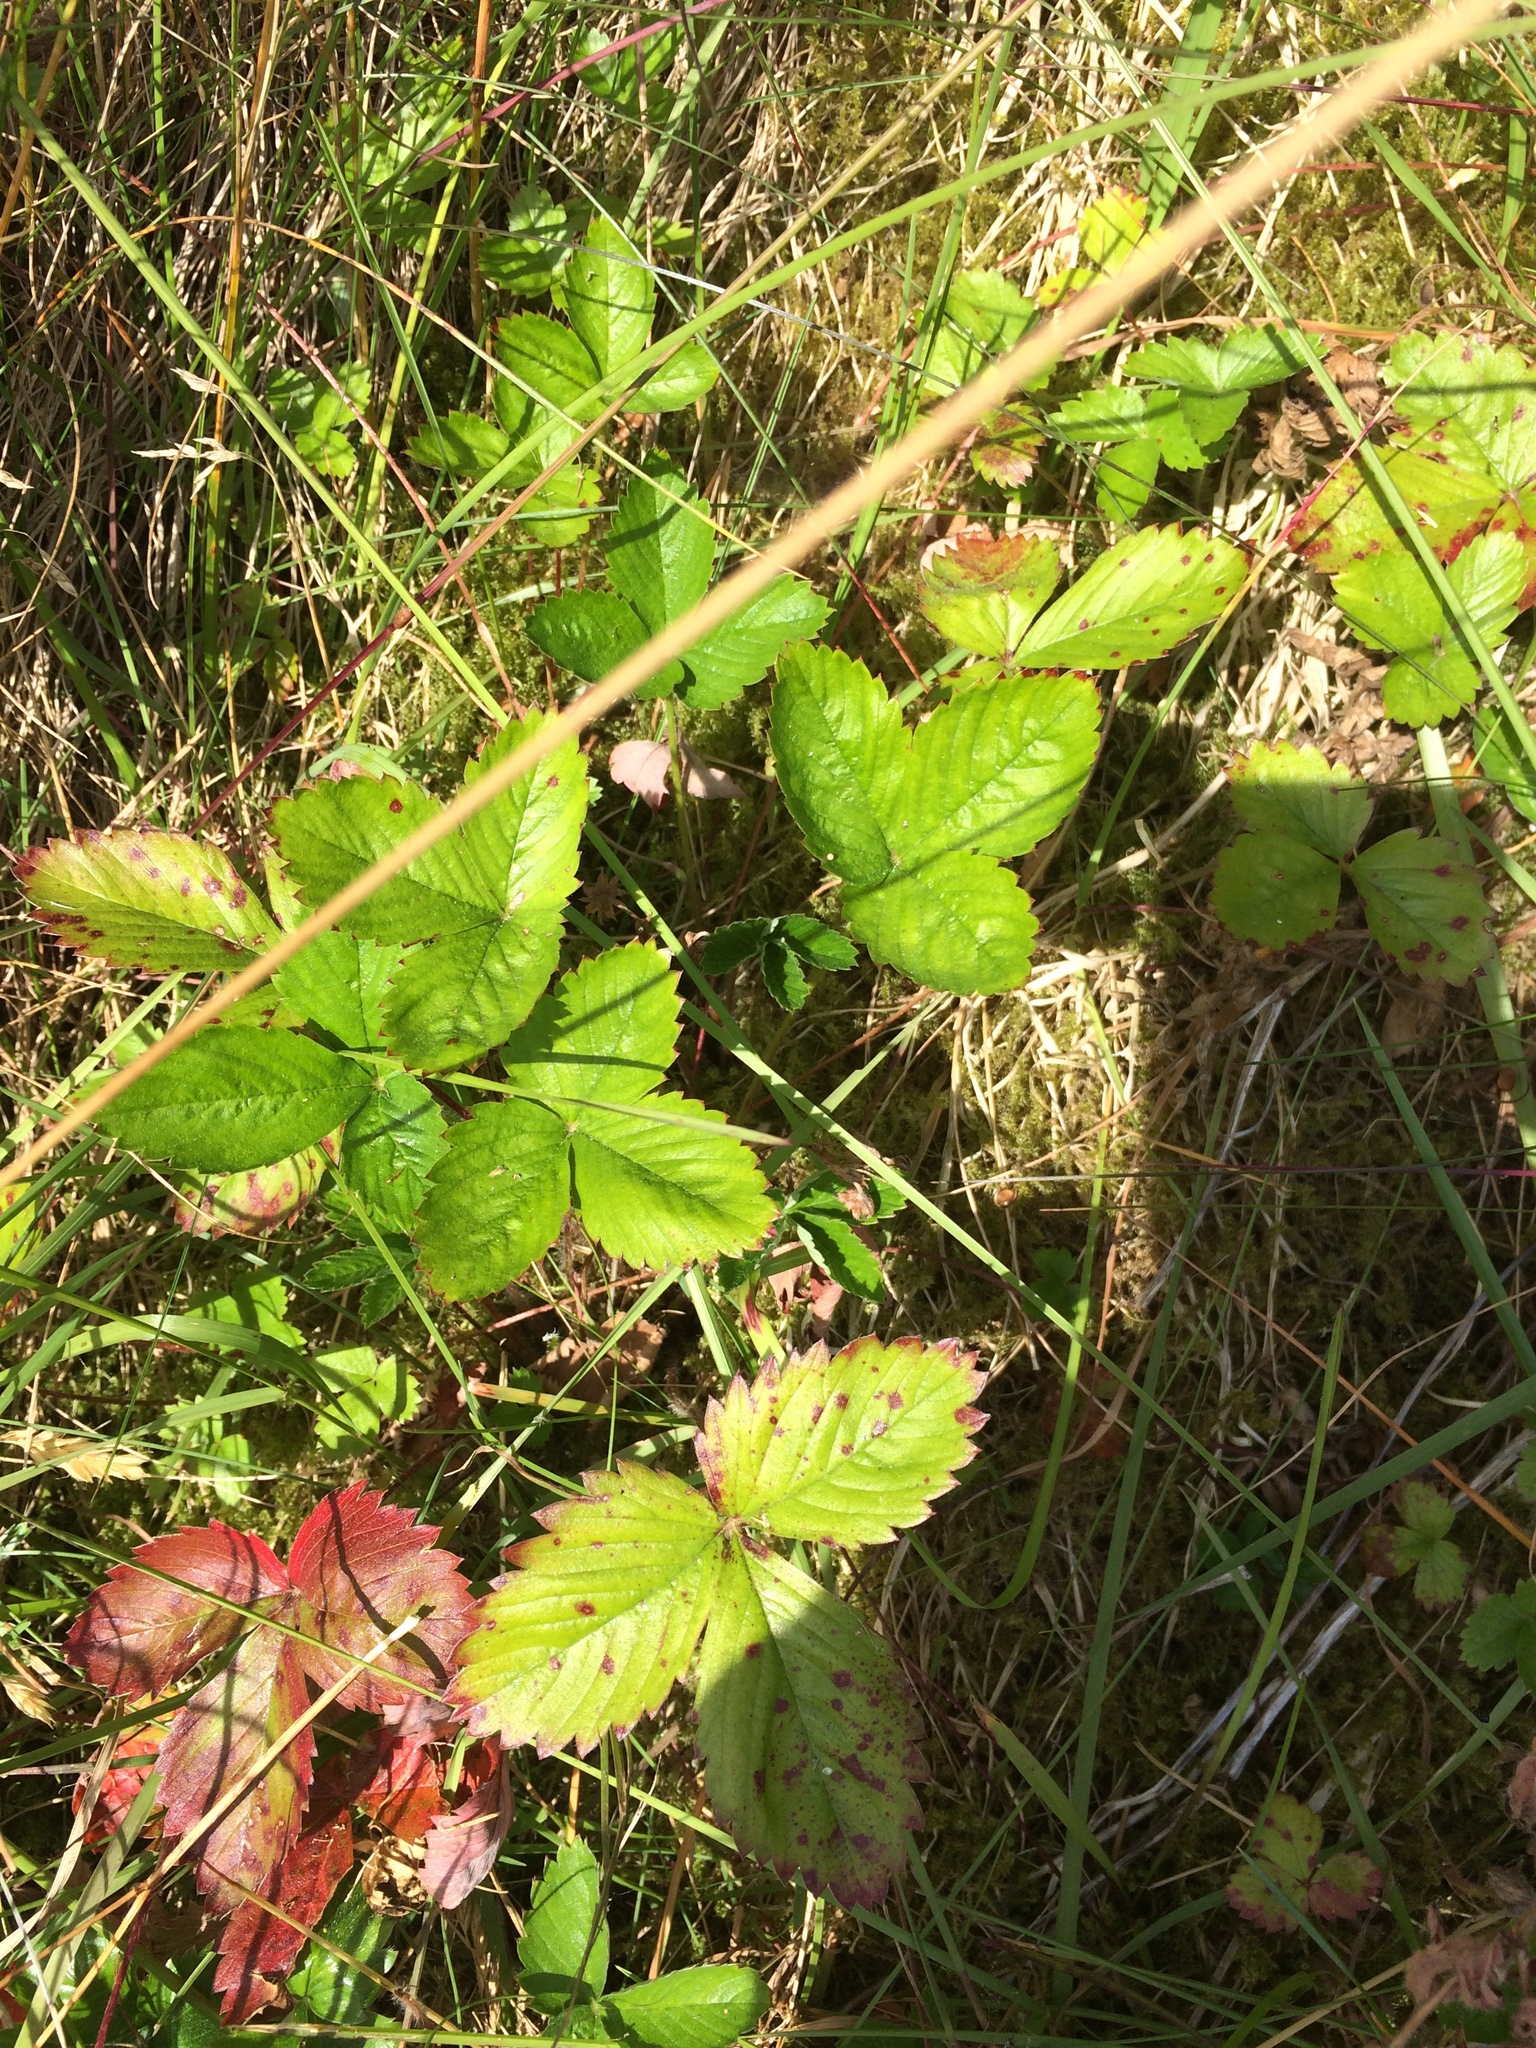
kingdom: Plantae
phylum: Tracheophyta
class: Magnoliopsida
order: Rosales
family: Rosaceae
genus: Fragaria
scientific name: Fragaria vesca
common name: Wild strawberry
